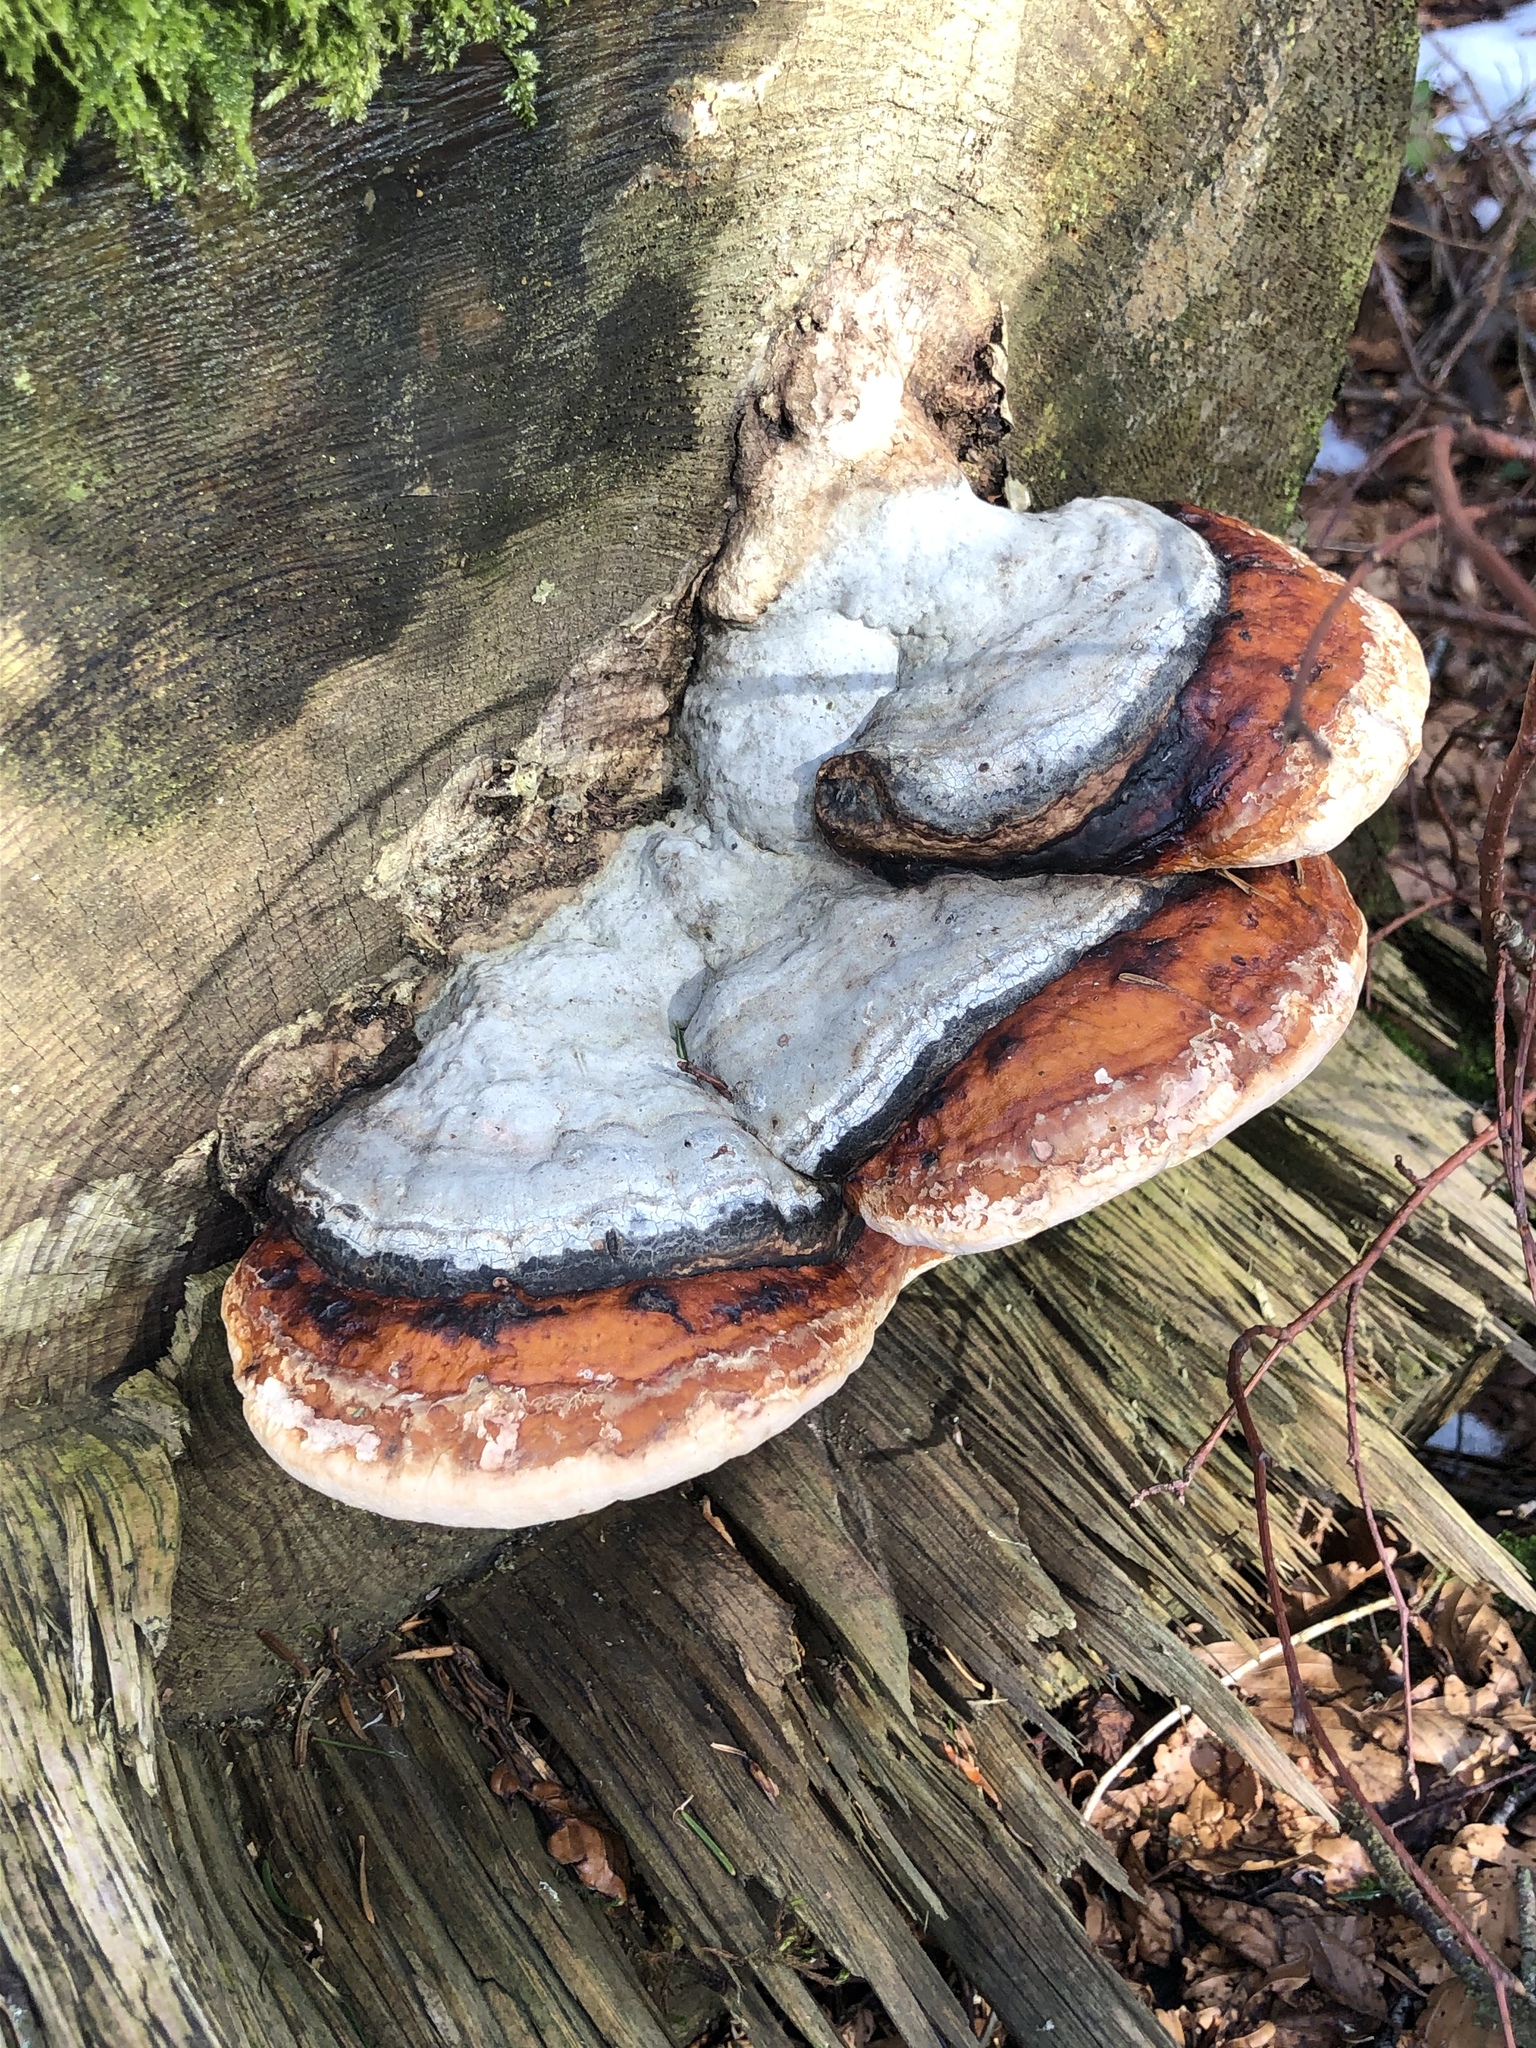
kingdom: Fungi
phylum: Basidiomycota
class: Agaricomycetes
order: Polyporales
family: Fomitopsidaceae
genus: Fomitopsis
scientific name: Fomitopsis pinicola
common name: Red-belted bracket
